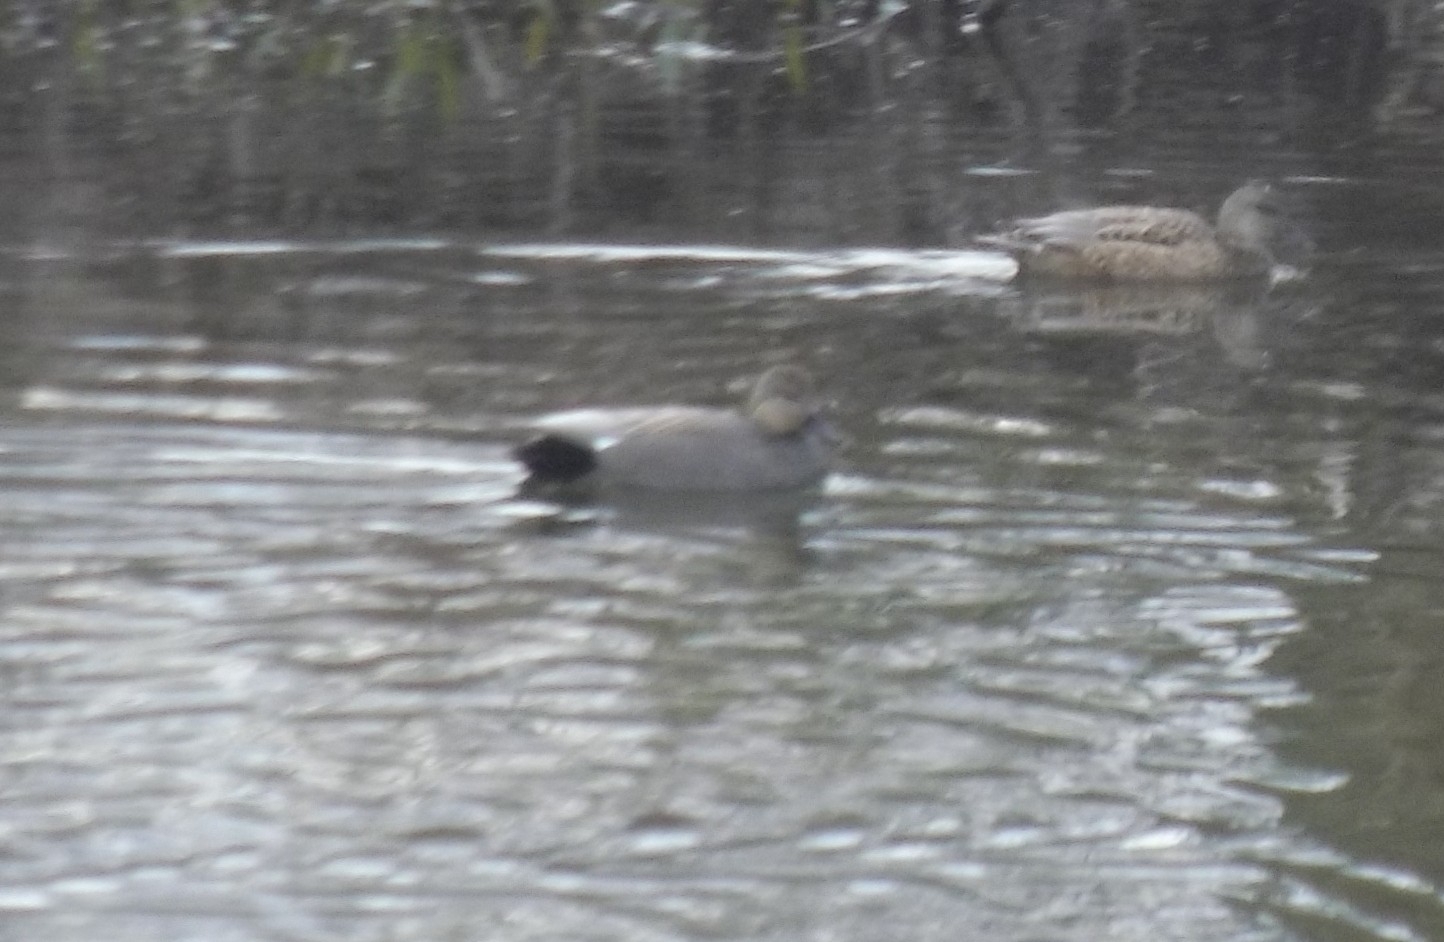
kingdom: Animalia
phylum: Chordata
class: Aves
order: Anseriformes
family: Anatidae
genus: Mareca
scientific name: Mareca strepera
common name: Gadwall
